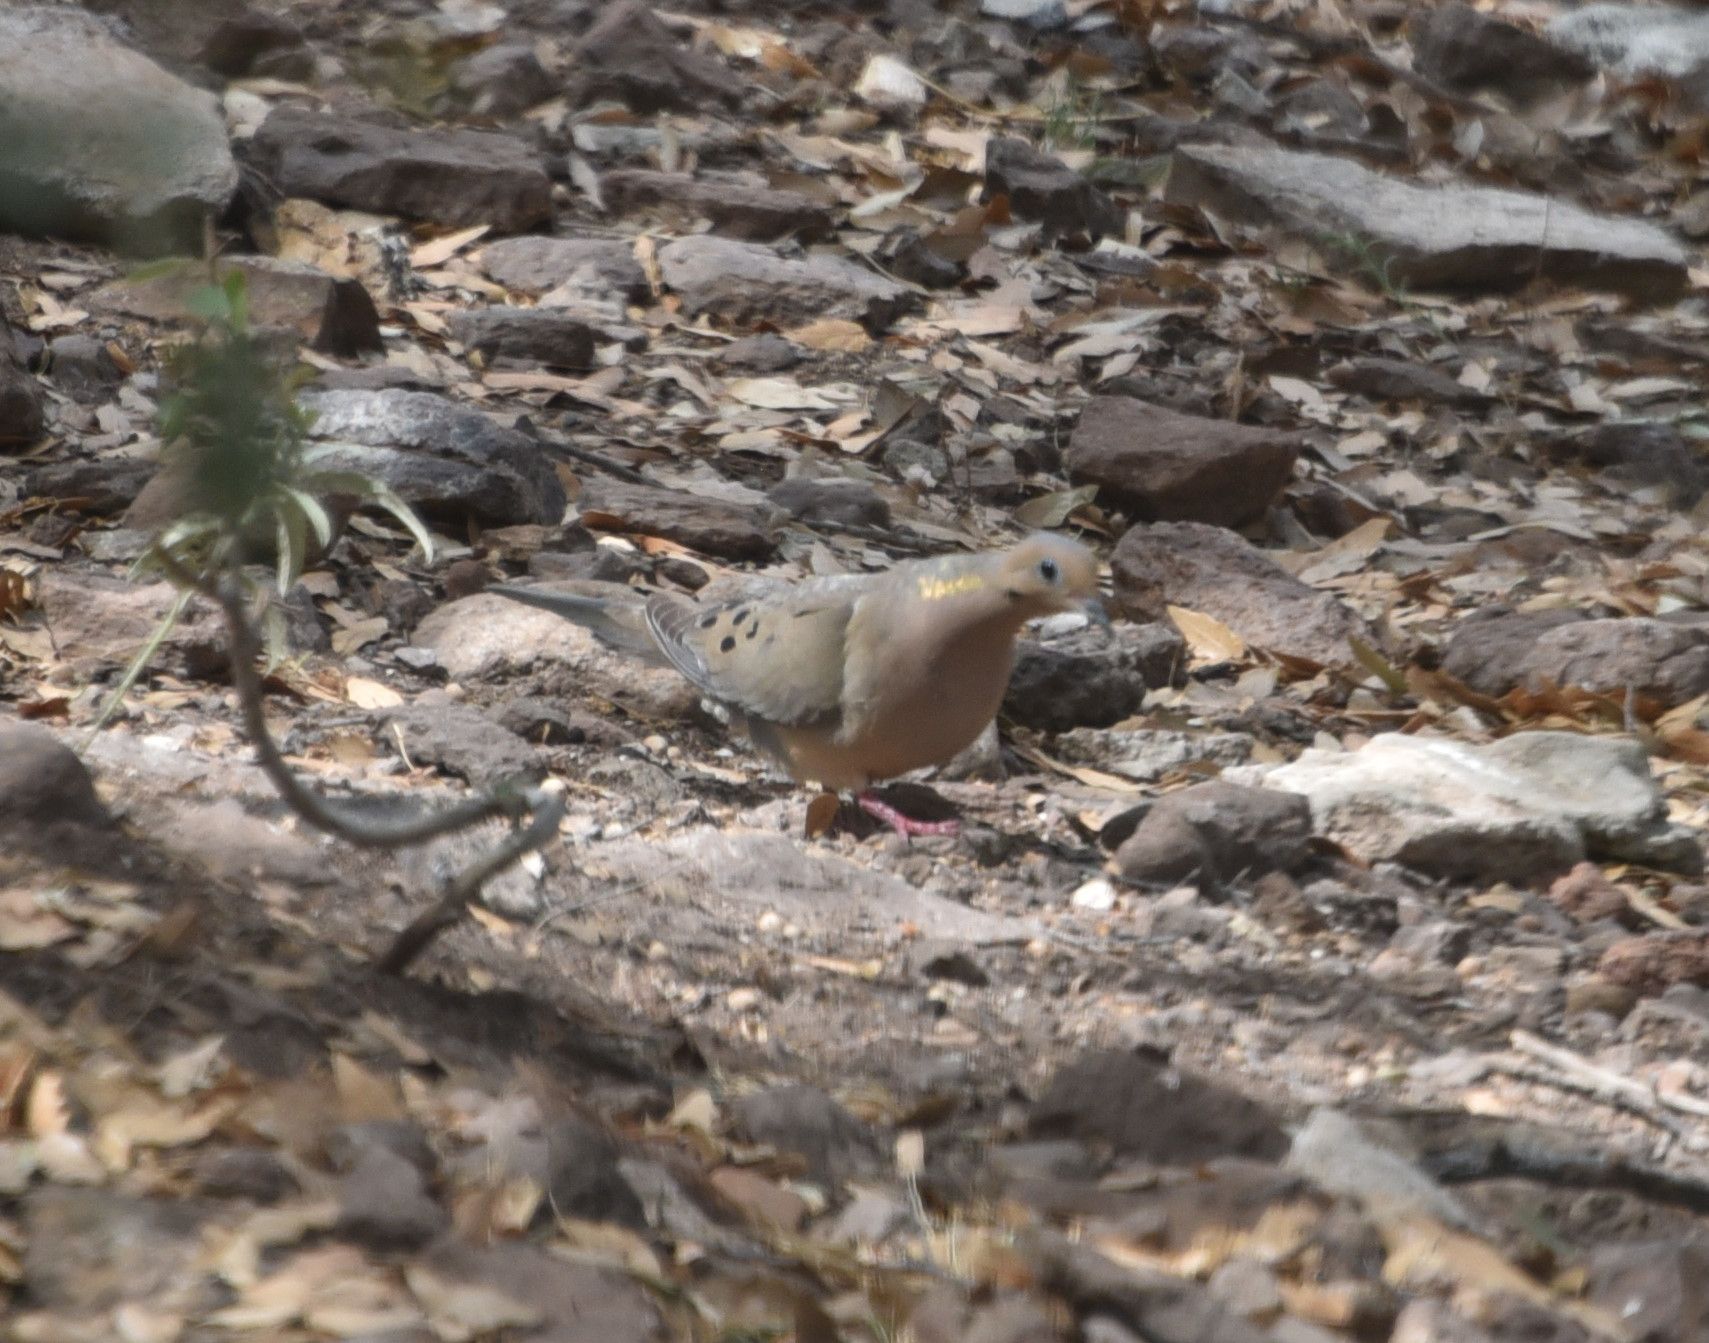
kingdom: Animalia
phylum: Chordata
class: Aves
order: Columbiformes
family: Columbidae
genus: Zenaida
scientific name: Zenaida macroura
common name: Mourning dove
